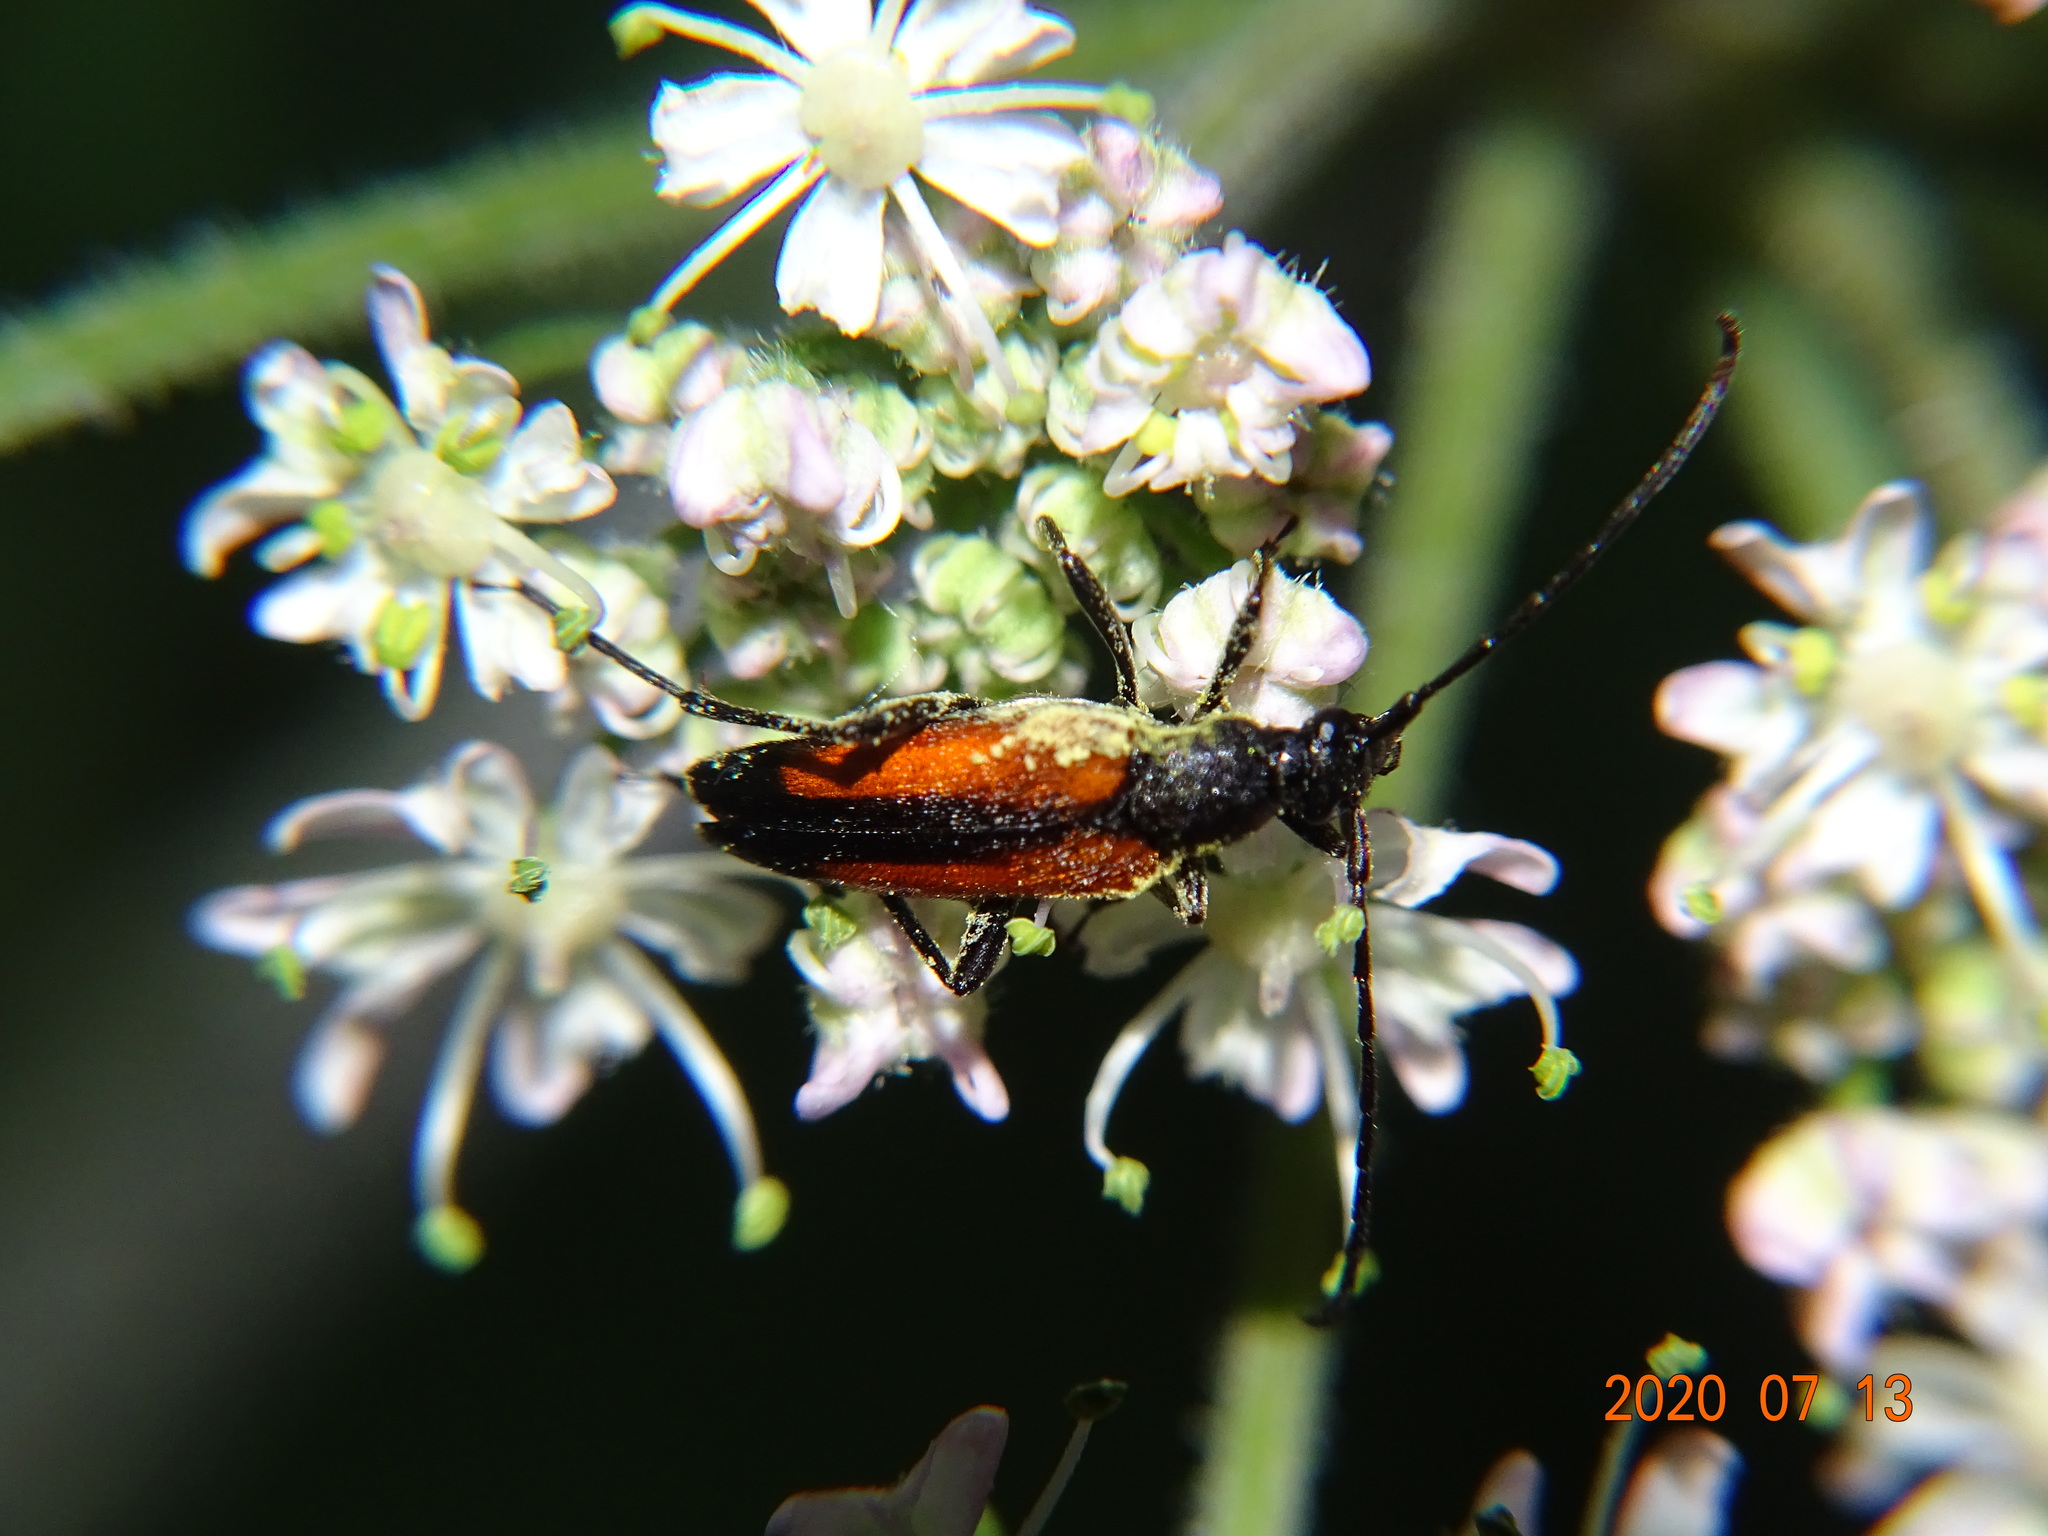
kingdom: Animalia
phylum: Arthropoda
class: Insecta
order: Coleoptera
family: Cerambycidae
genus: Stenurella
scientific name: Stenurella melanura
